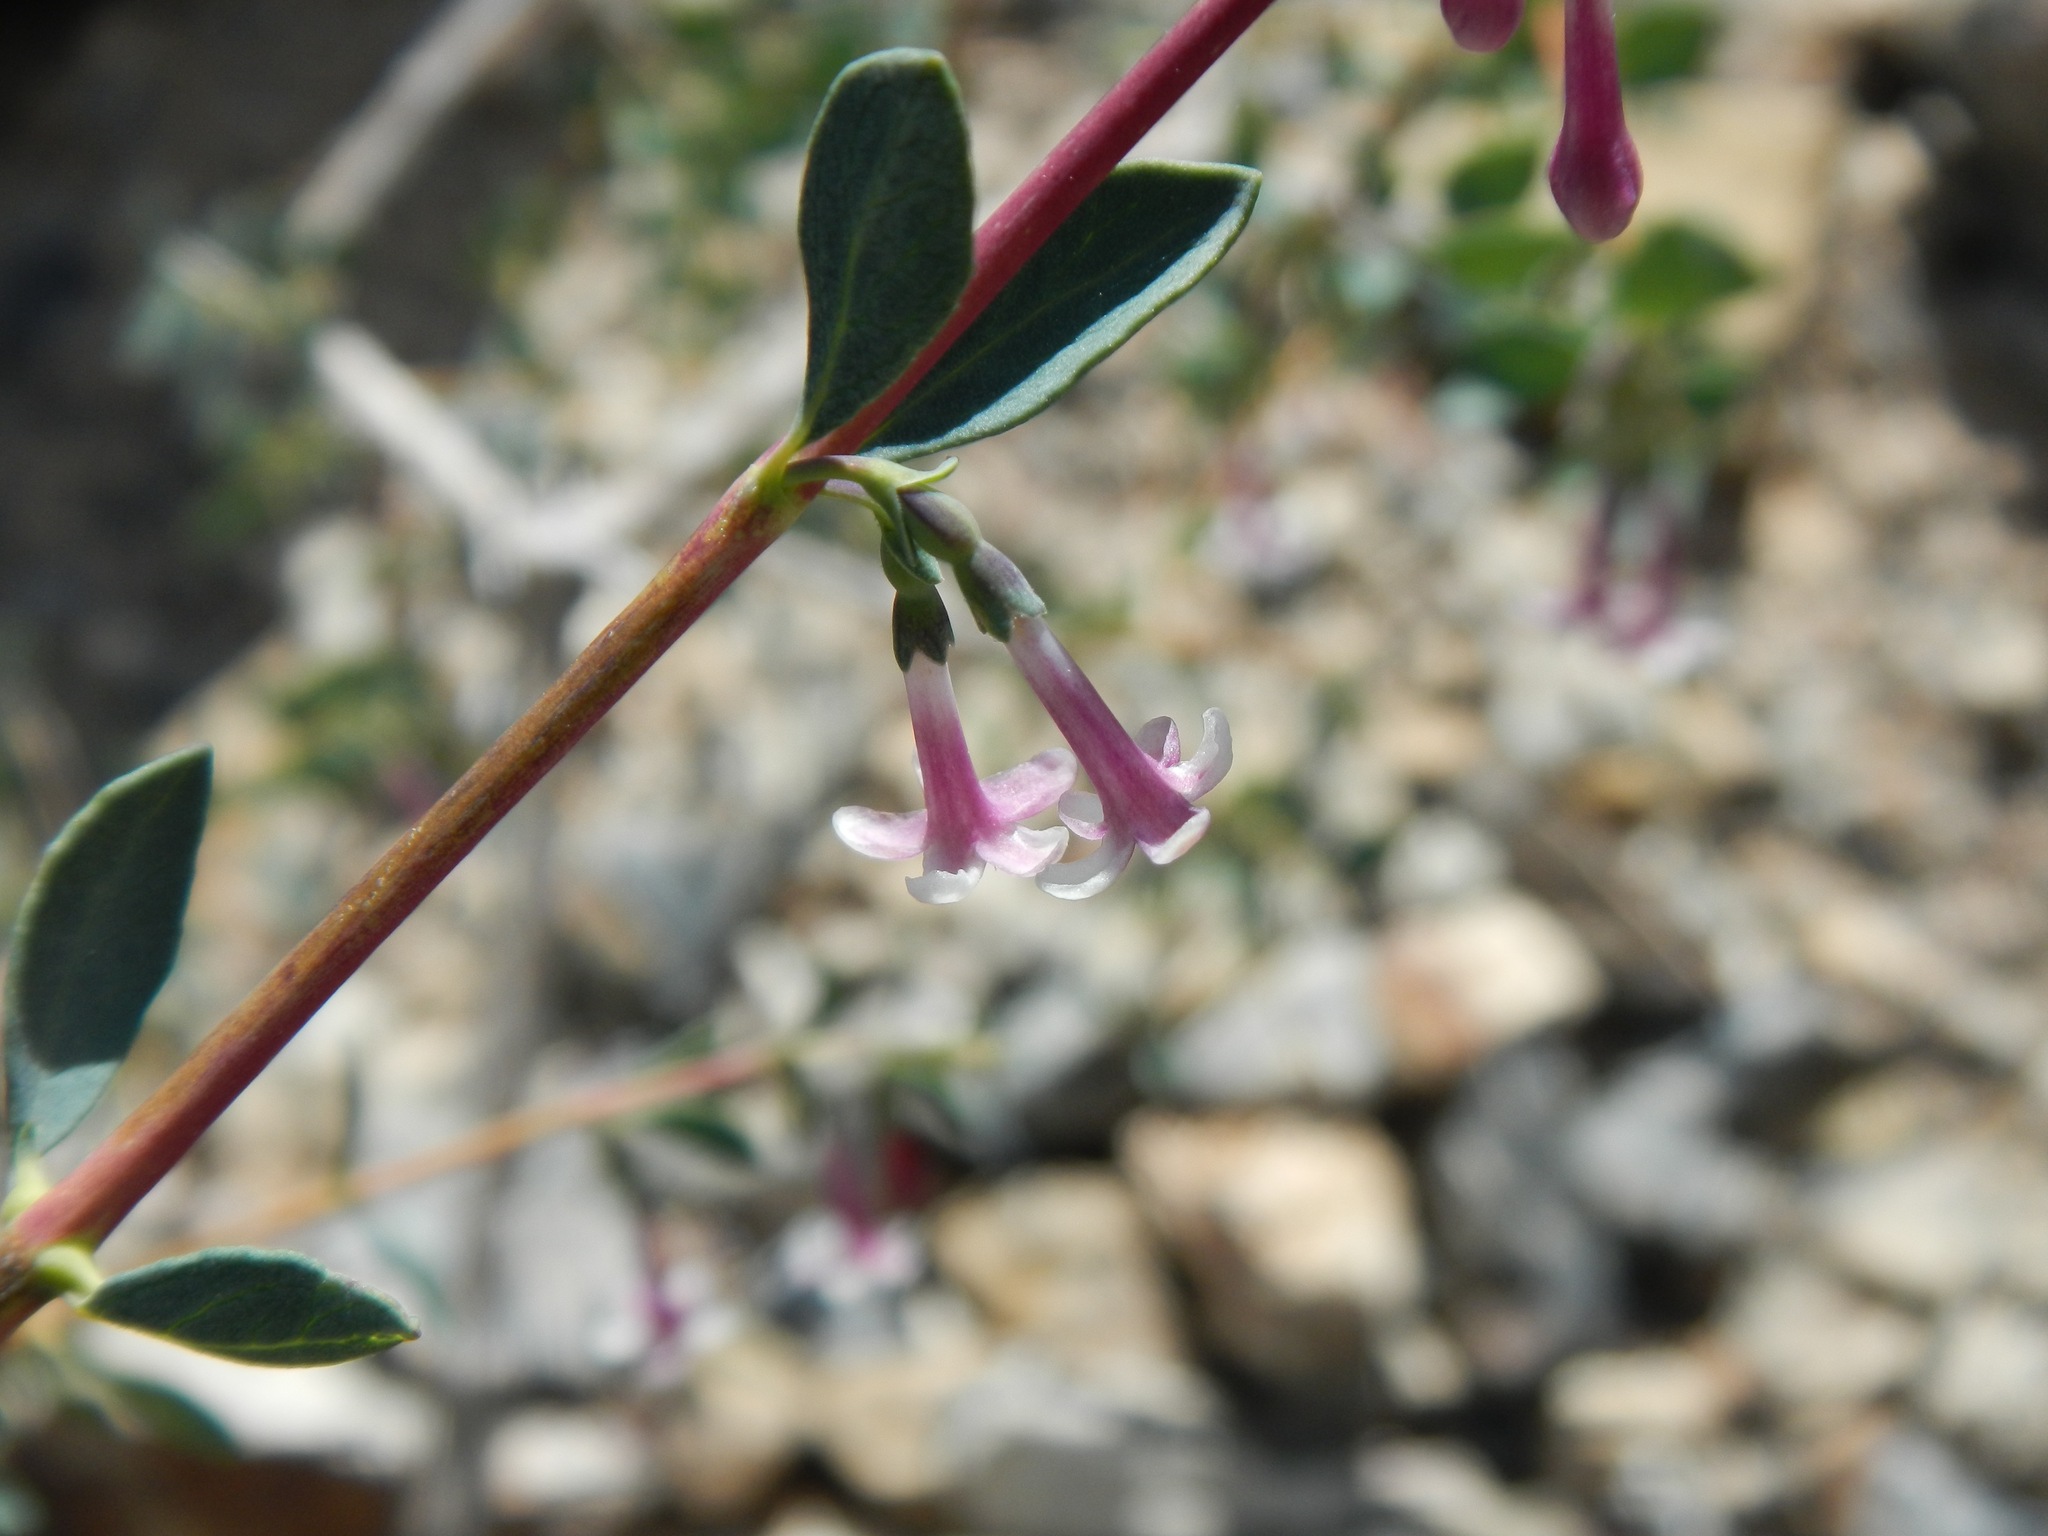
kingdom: Plantae
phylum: Tracheophyta
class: Magnoliopsida
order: Dipsacales
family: Caprifoliaceae
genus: Symphoricarpos
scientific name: Symphoricarpos longiflorus
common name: Fragrant snowberry
